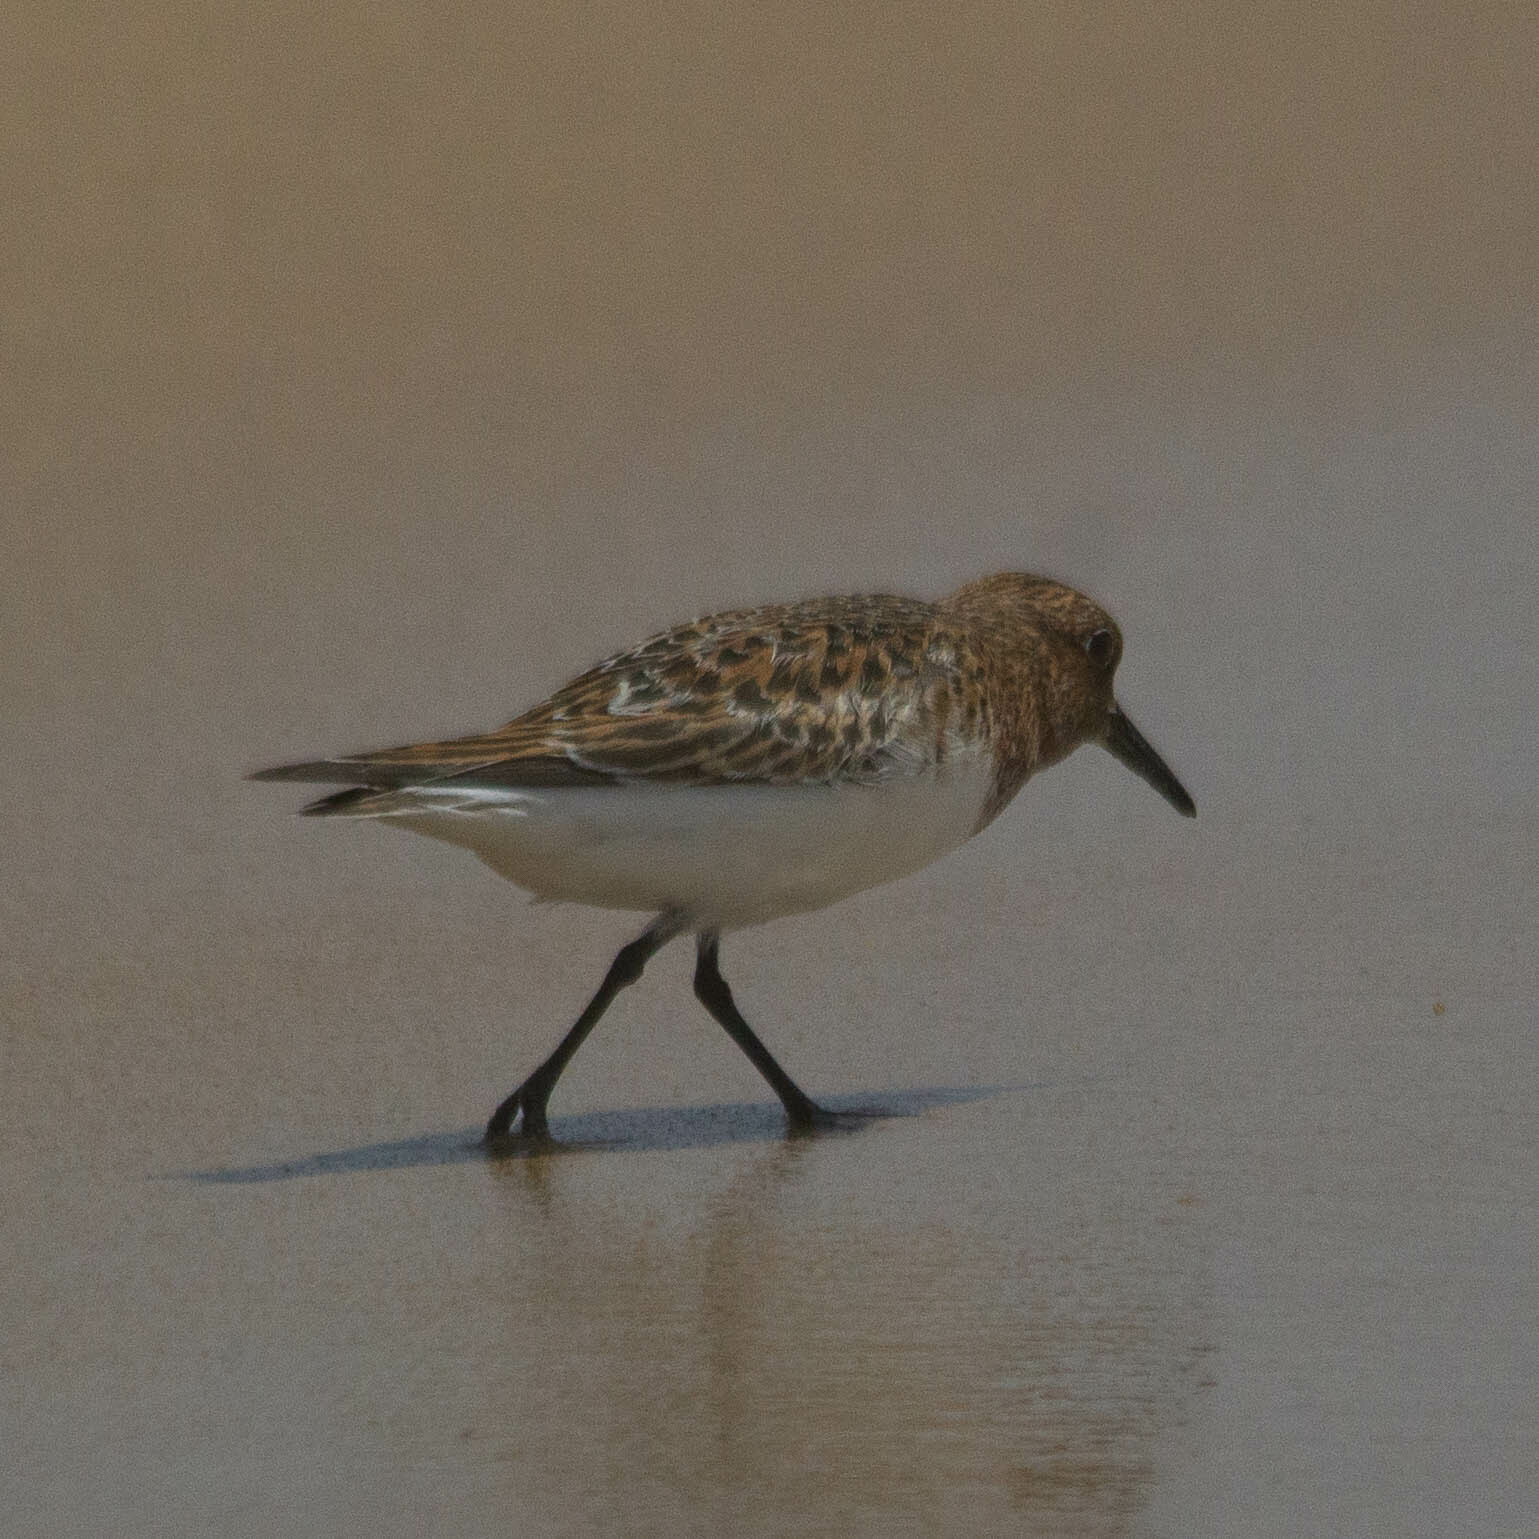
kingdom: Animalia
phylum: Chordata
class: Aves
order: Charadriiformes
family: Scolopacidae
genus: Calidris
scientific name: Calidris alba
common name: Sanderling
